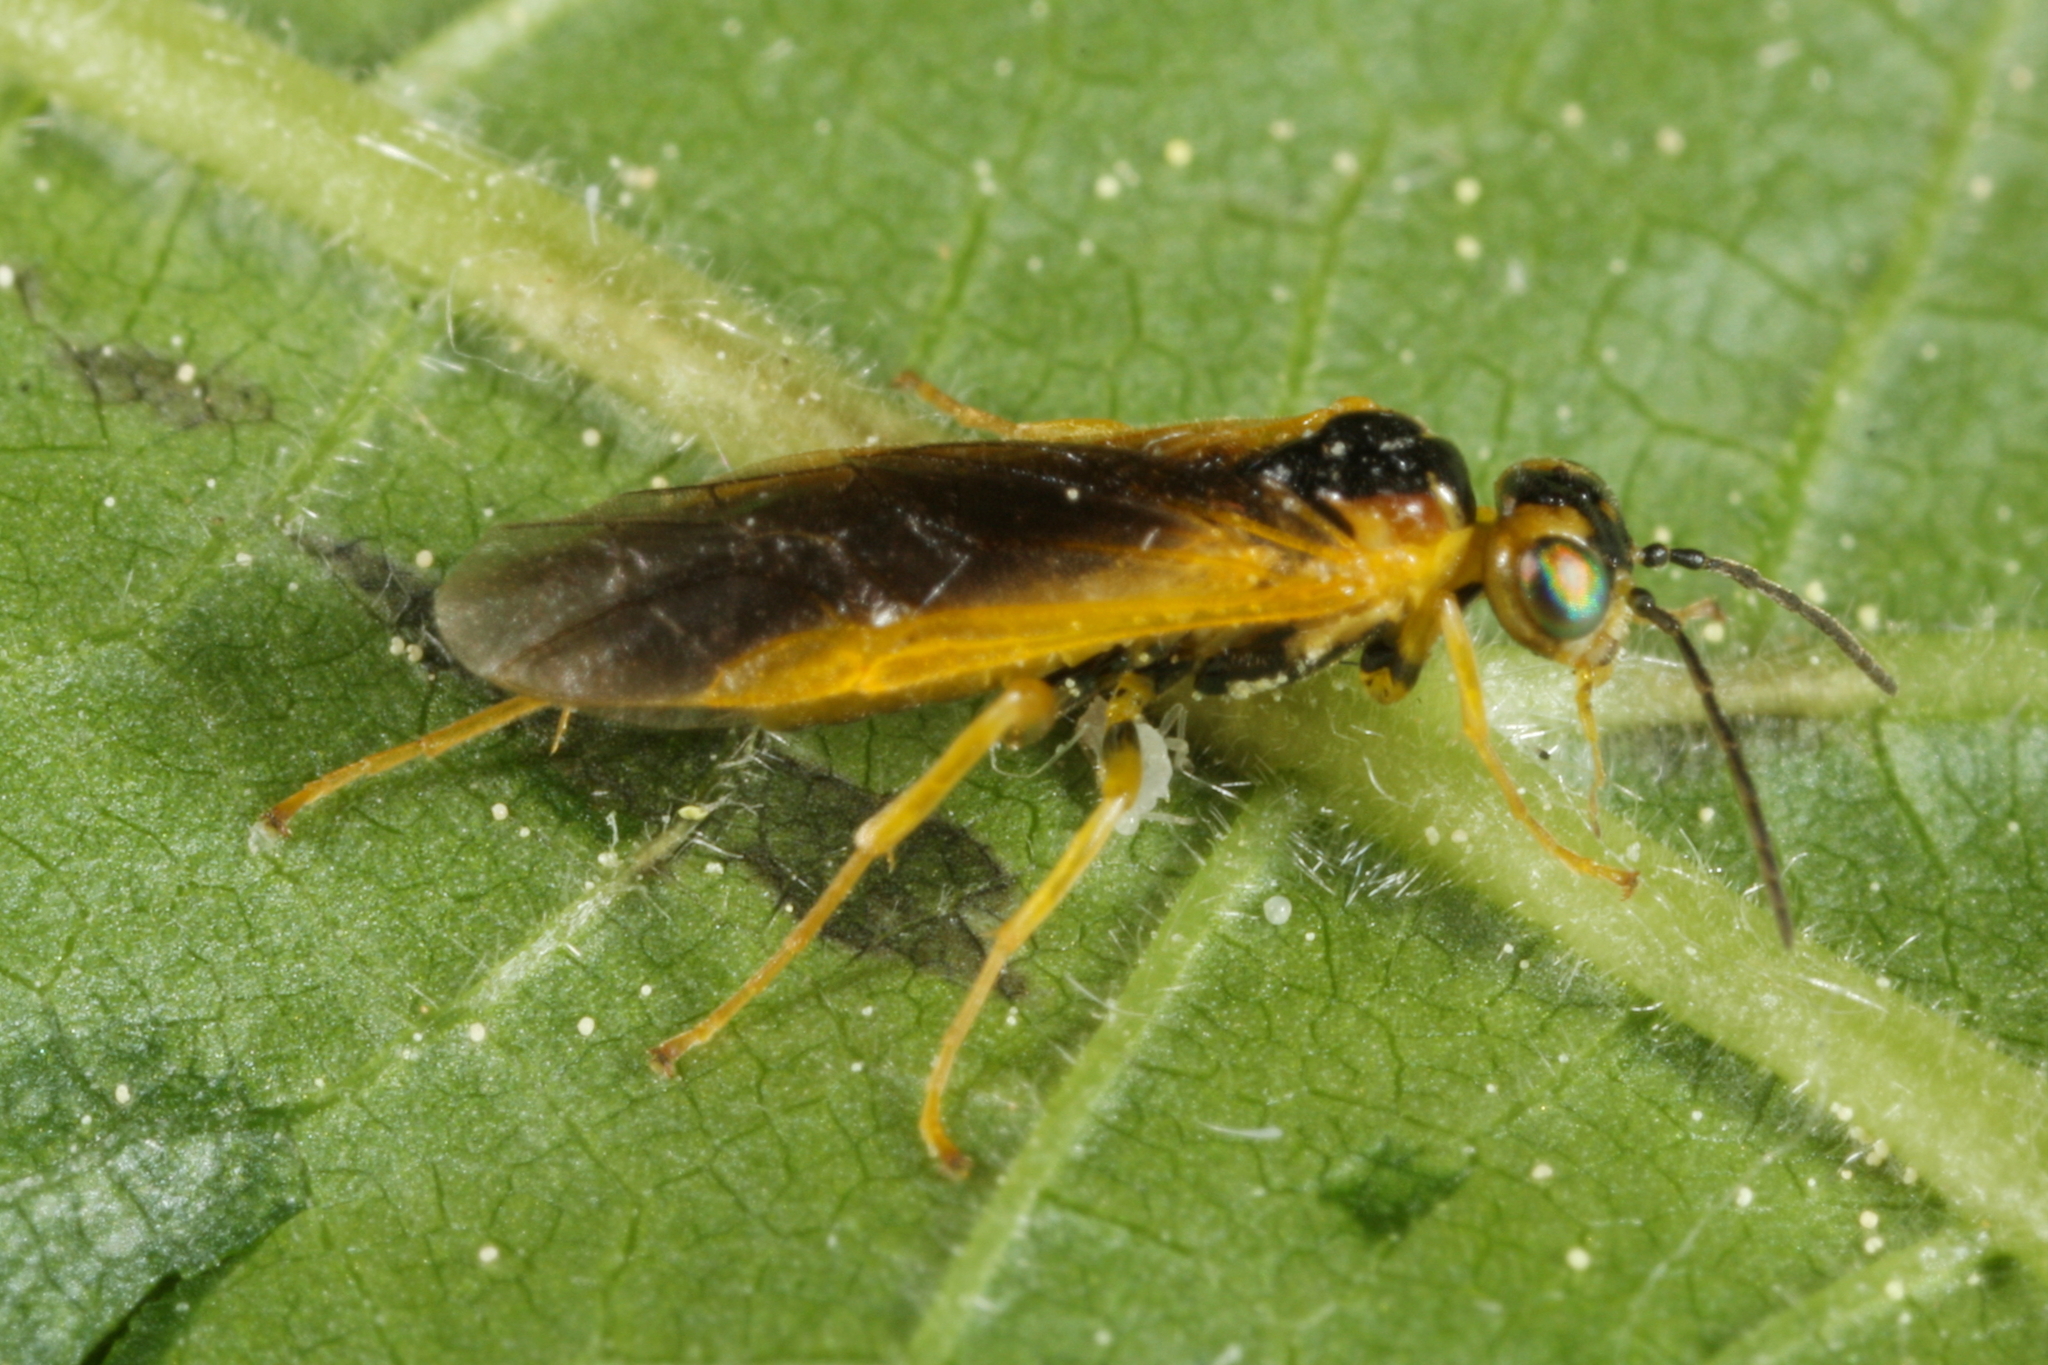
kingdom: Animalia
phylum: Arthropoda
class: Insecta
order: Hymenoptera
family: Tenthredinidae
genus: Harpiphorus
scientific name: Harpiphorus lepidus
